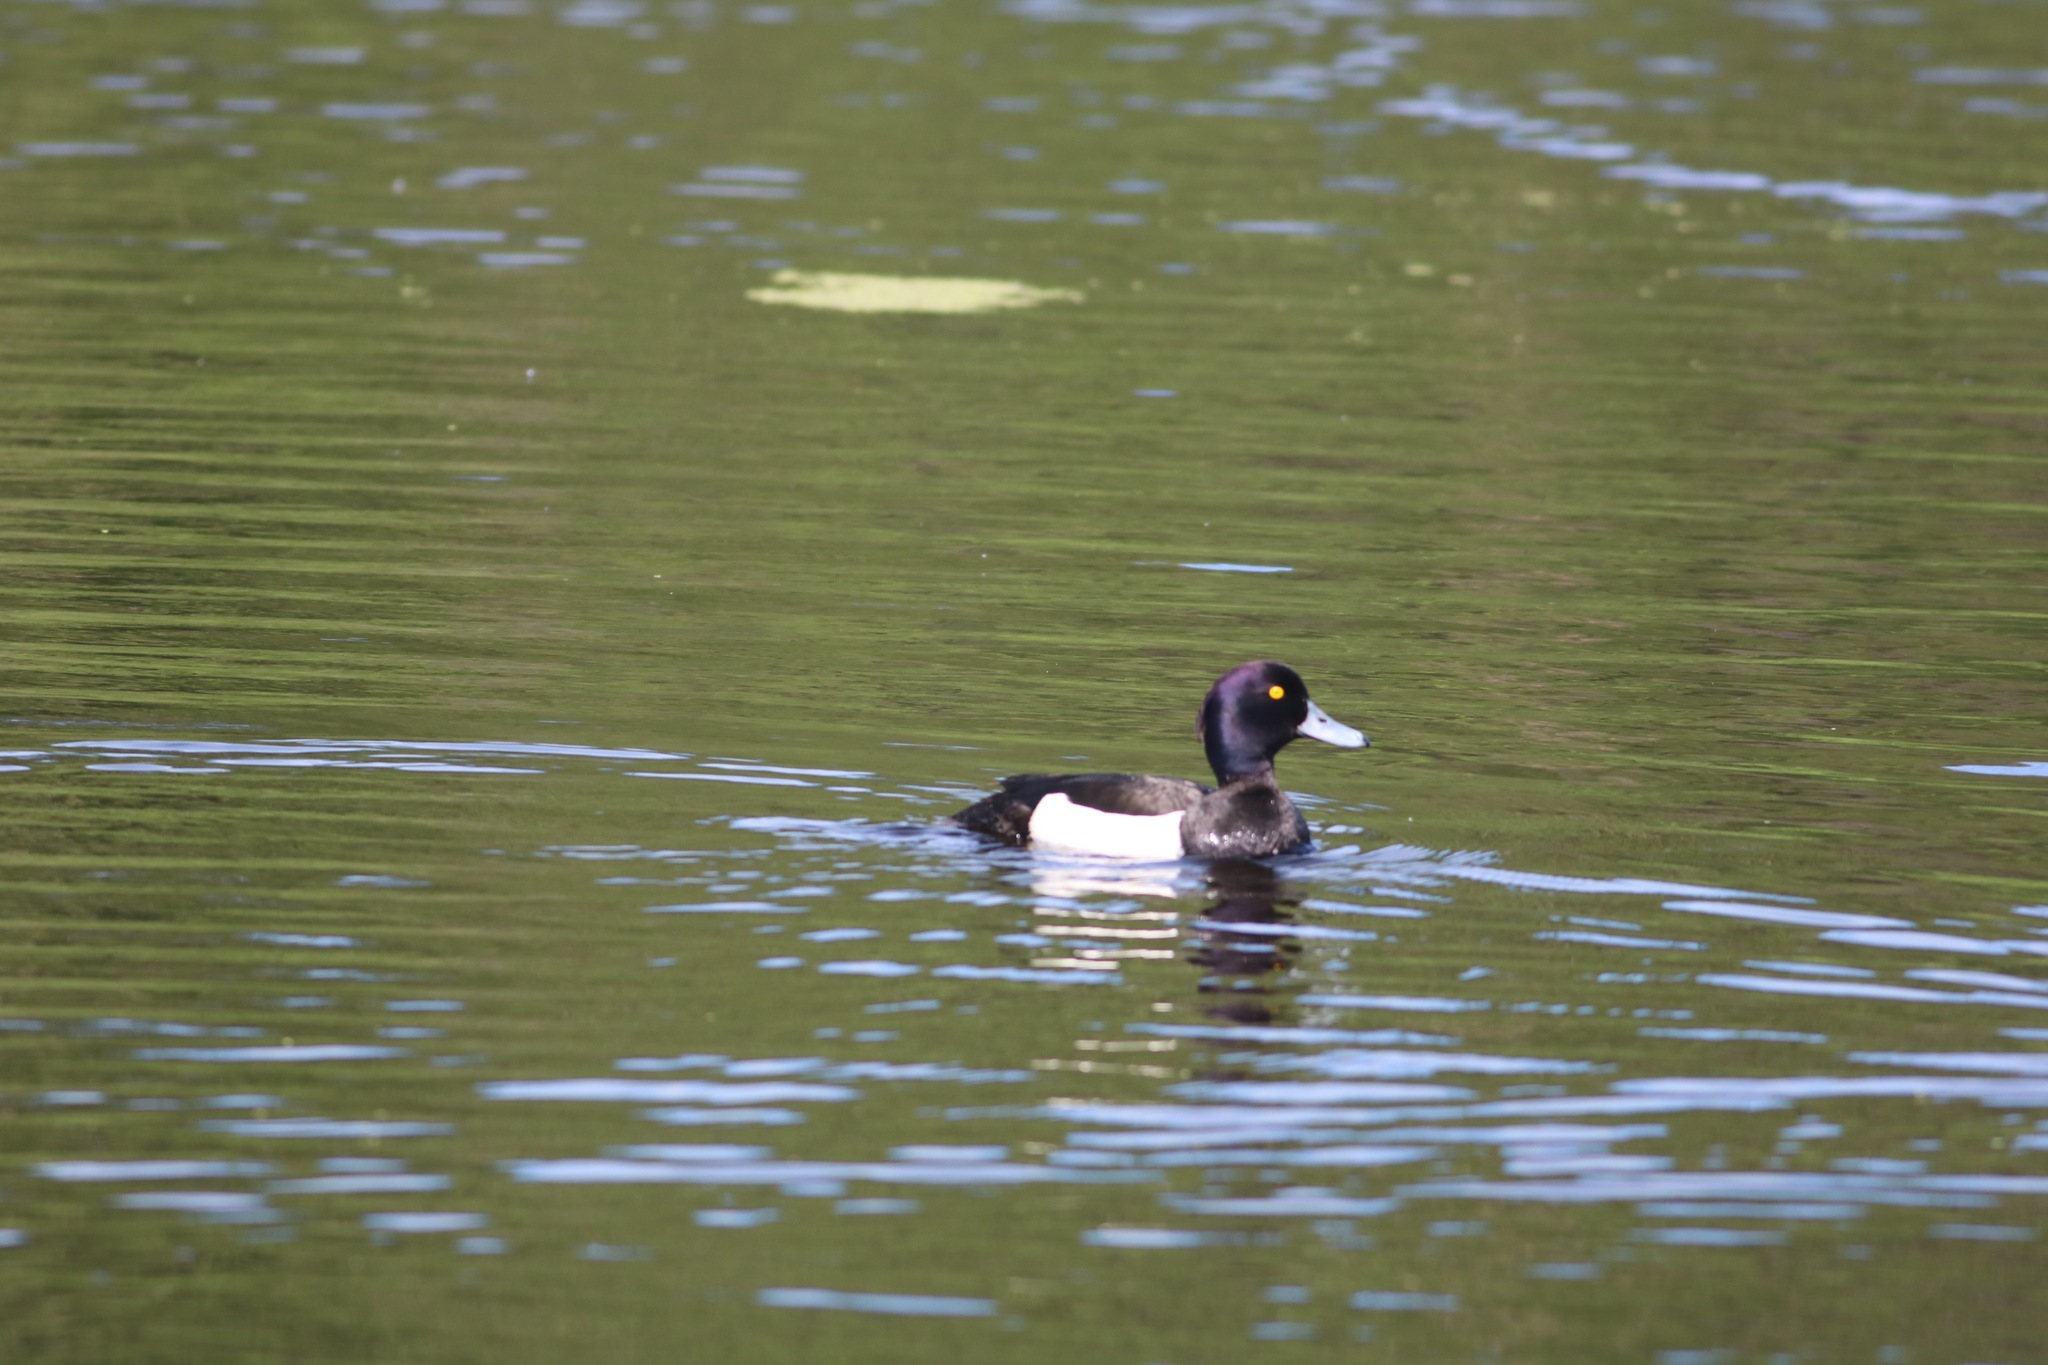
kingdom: Animalia
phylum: Chordata
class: Aves
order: Anseriformes
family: Anatidae
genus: Aythya
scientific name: Aythya fuligula
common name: Tufted duck
